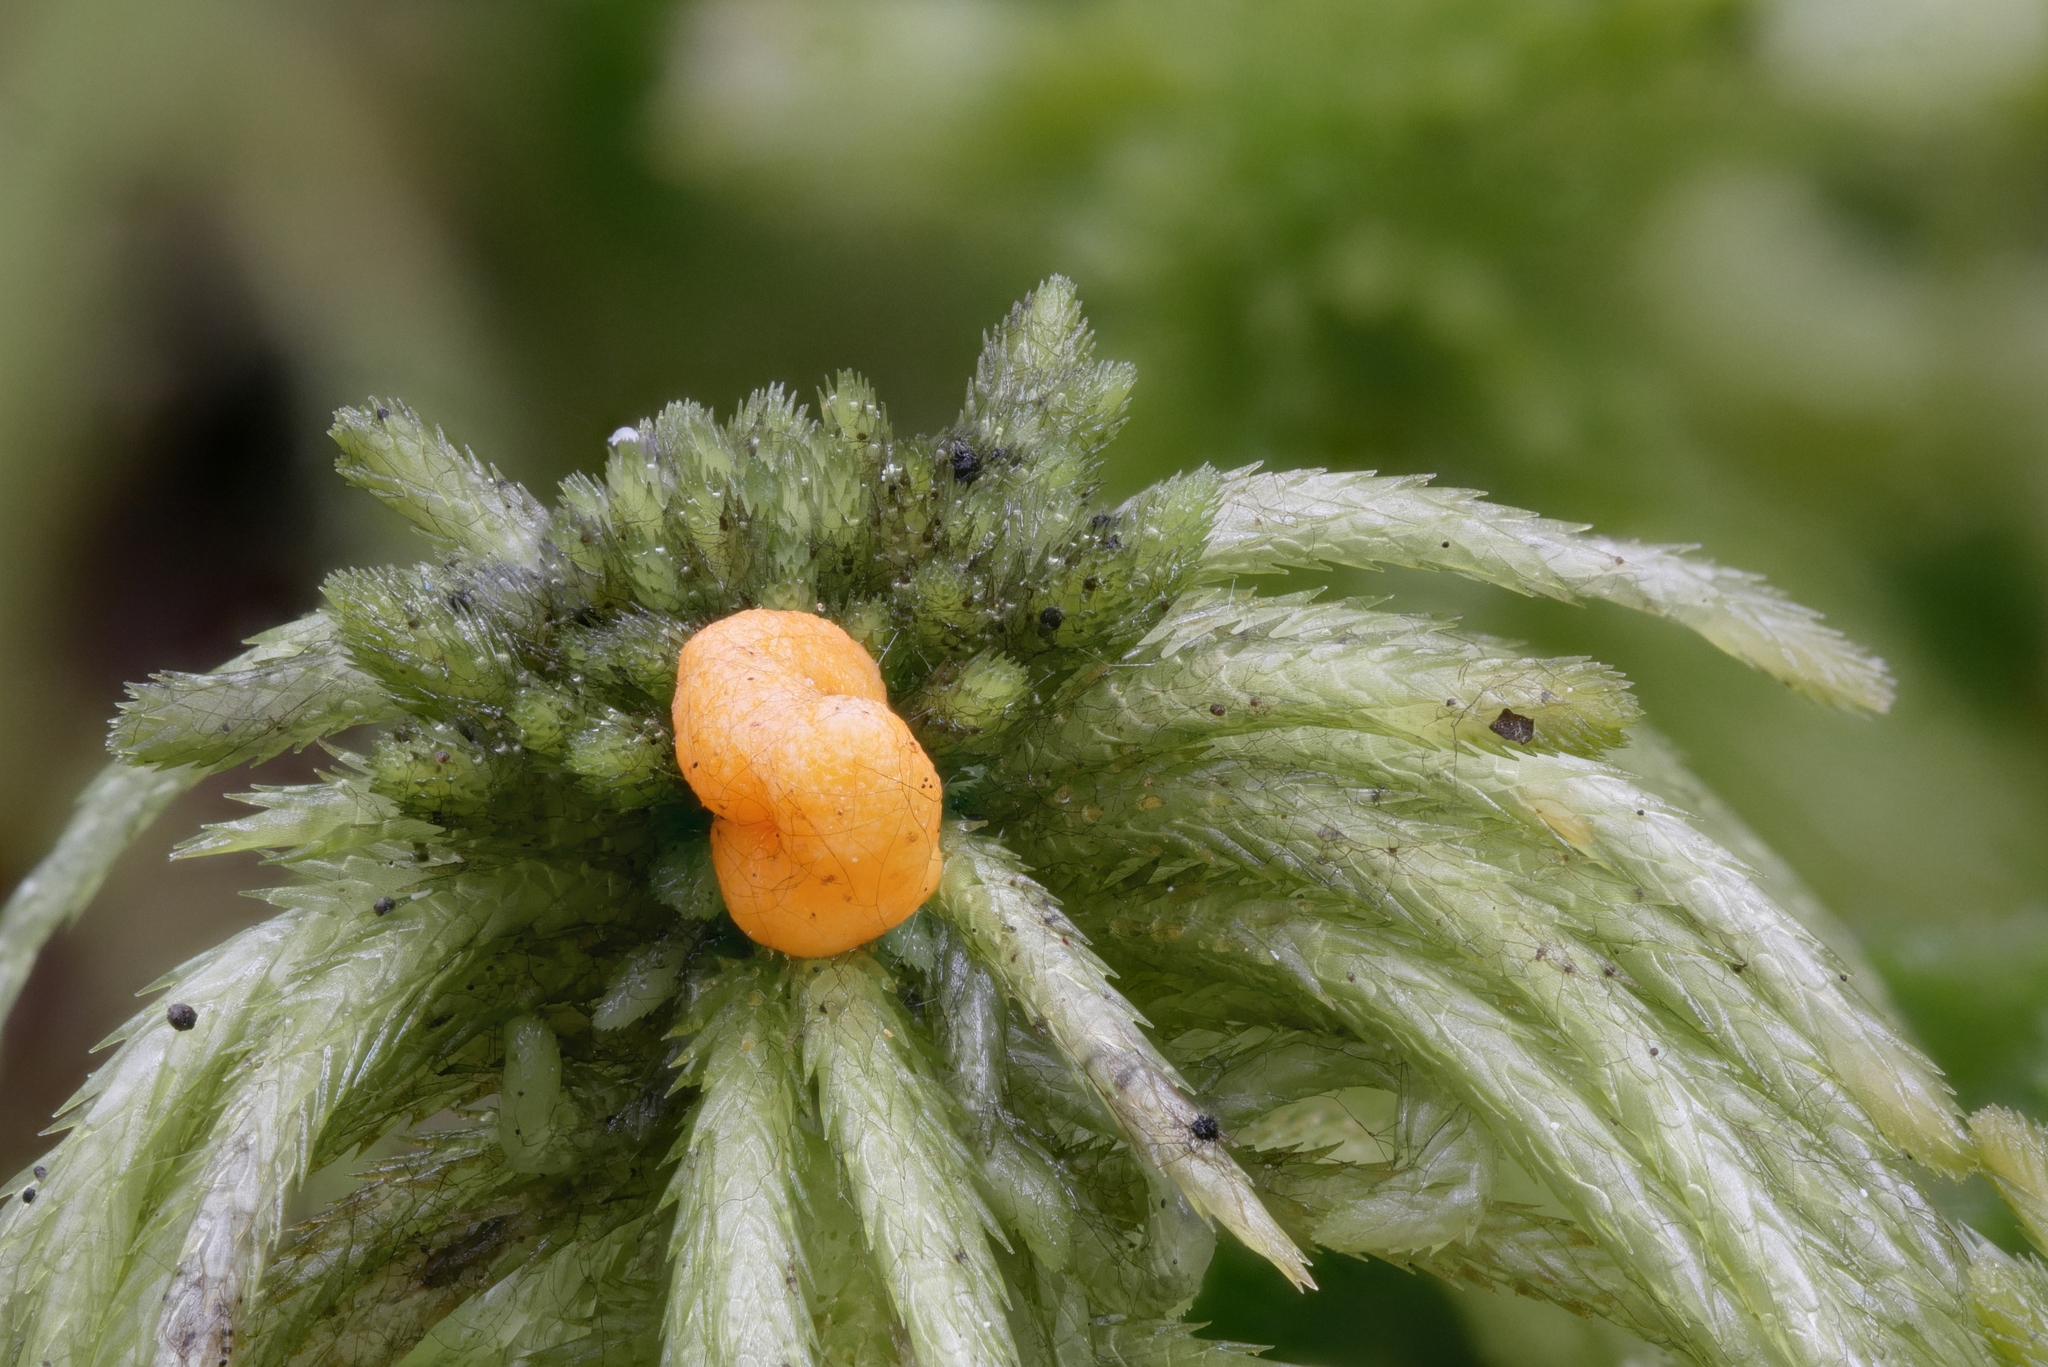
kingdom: Fungi
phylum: Mucoromycota
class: Endogonomycetes
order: Endogonales
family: Endogonaceae
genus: Endogone
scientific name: Endogone pisiformis
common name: Hairy pea truffle
